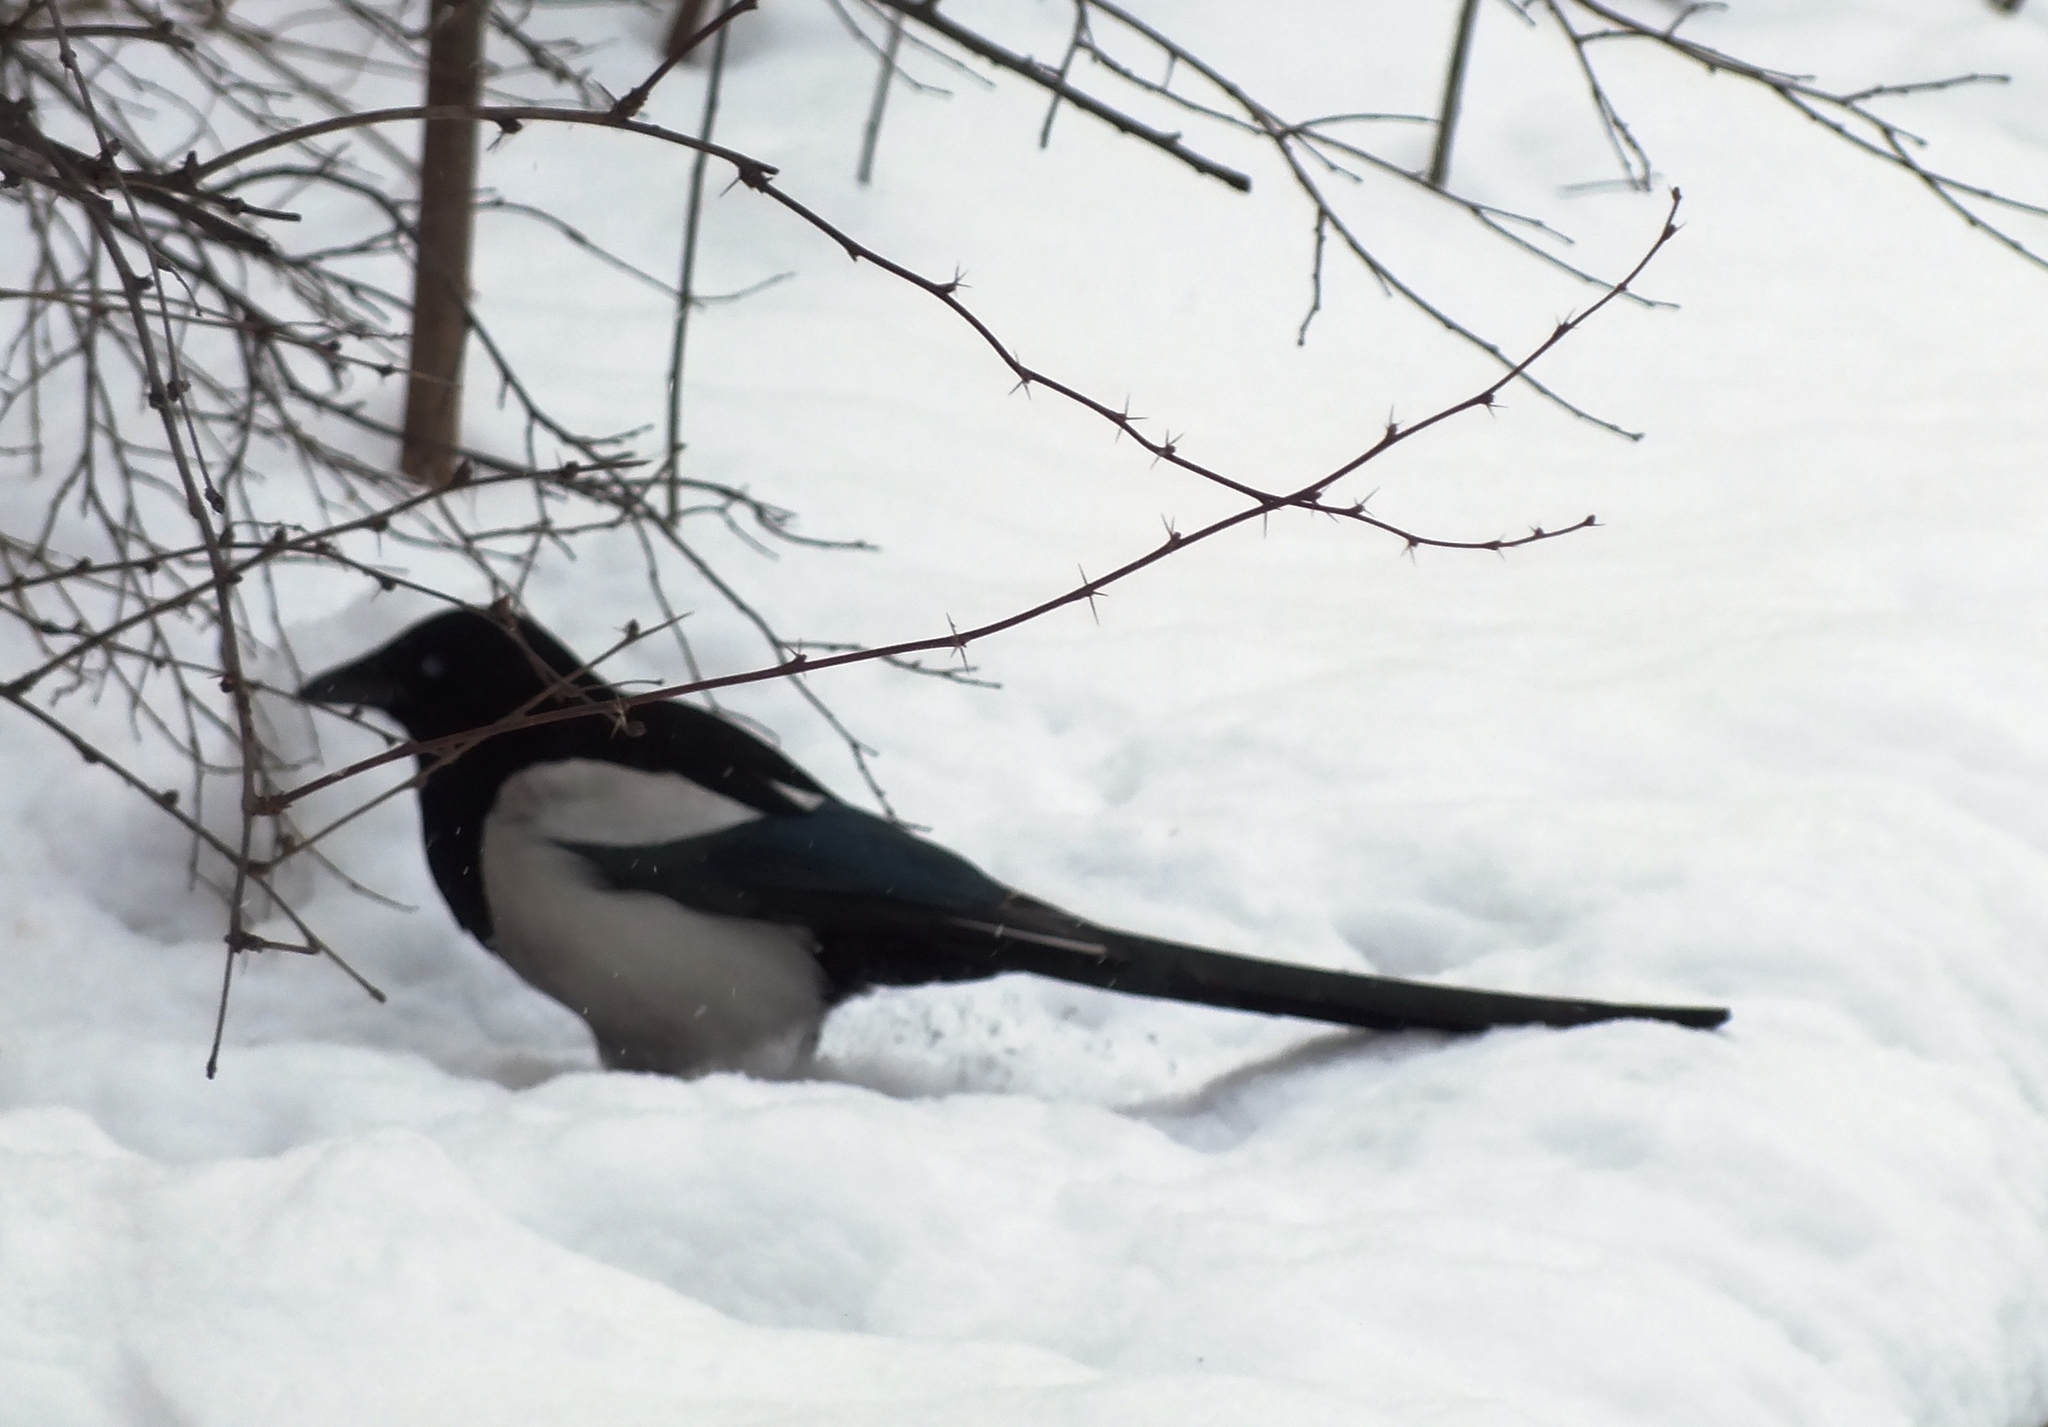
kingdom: Animalia
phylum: Chordata
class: Aves
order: Passeriformes
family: Corvidae
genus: Pica
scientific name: Pica pica
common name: Eurasian magpie
